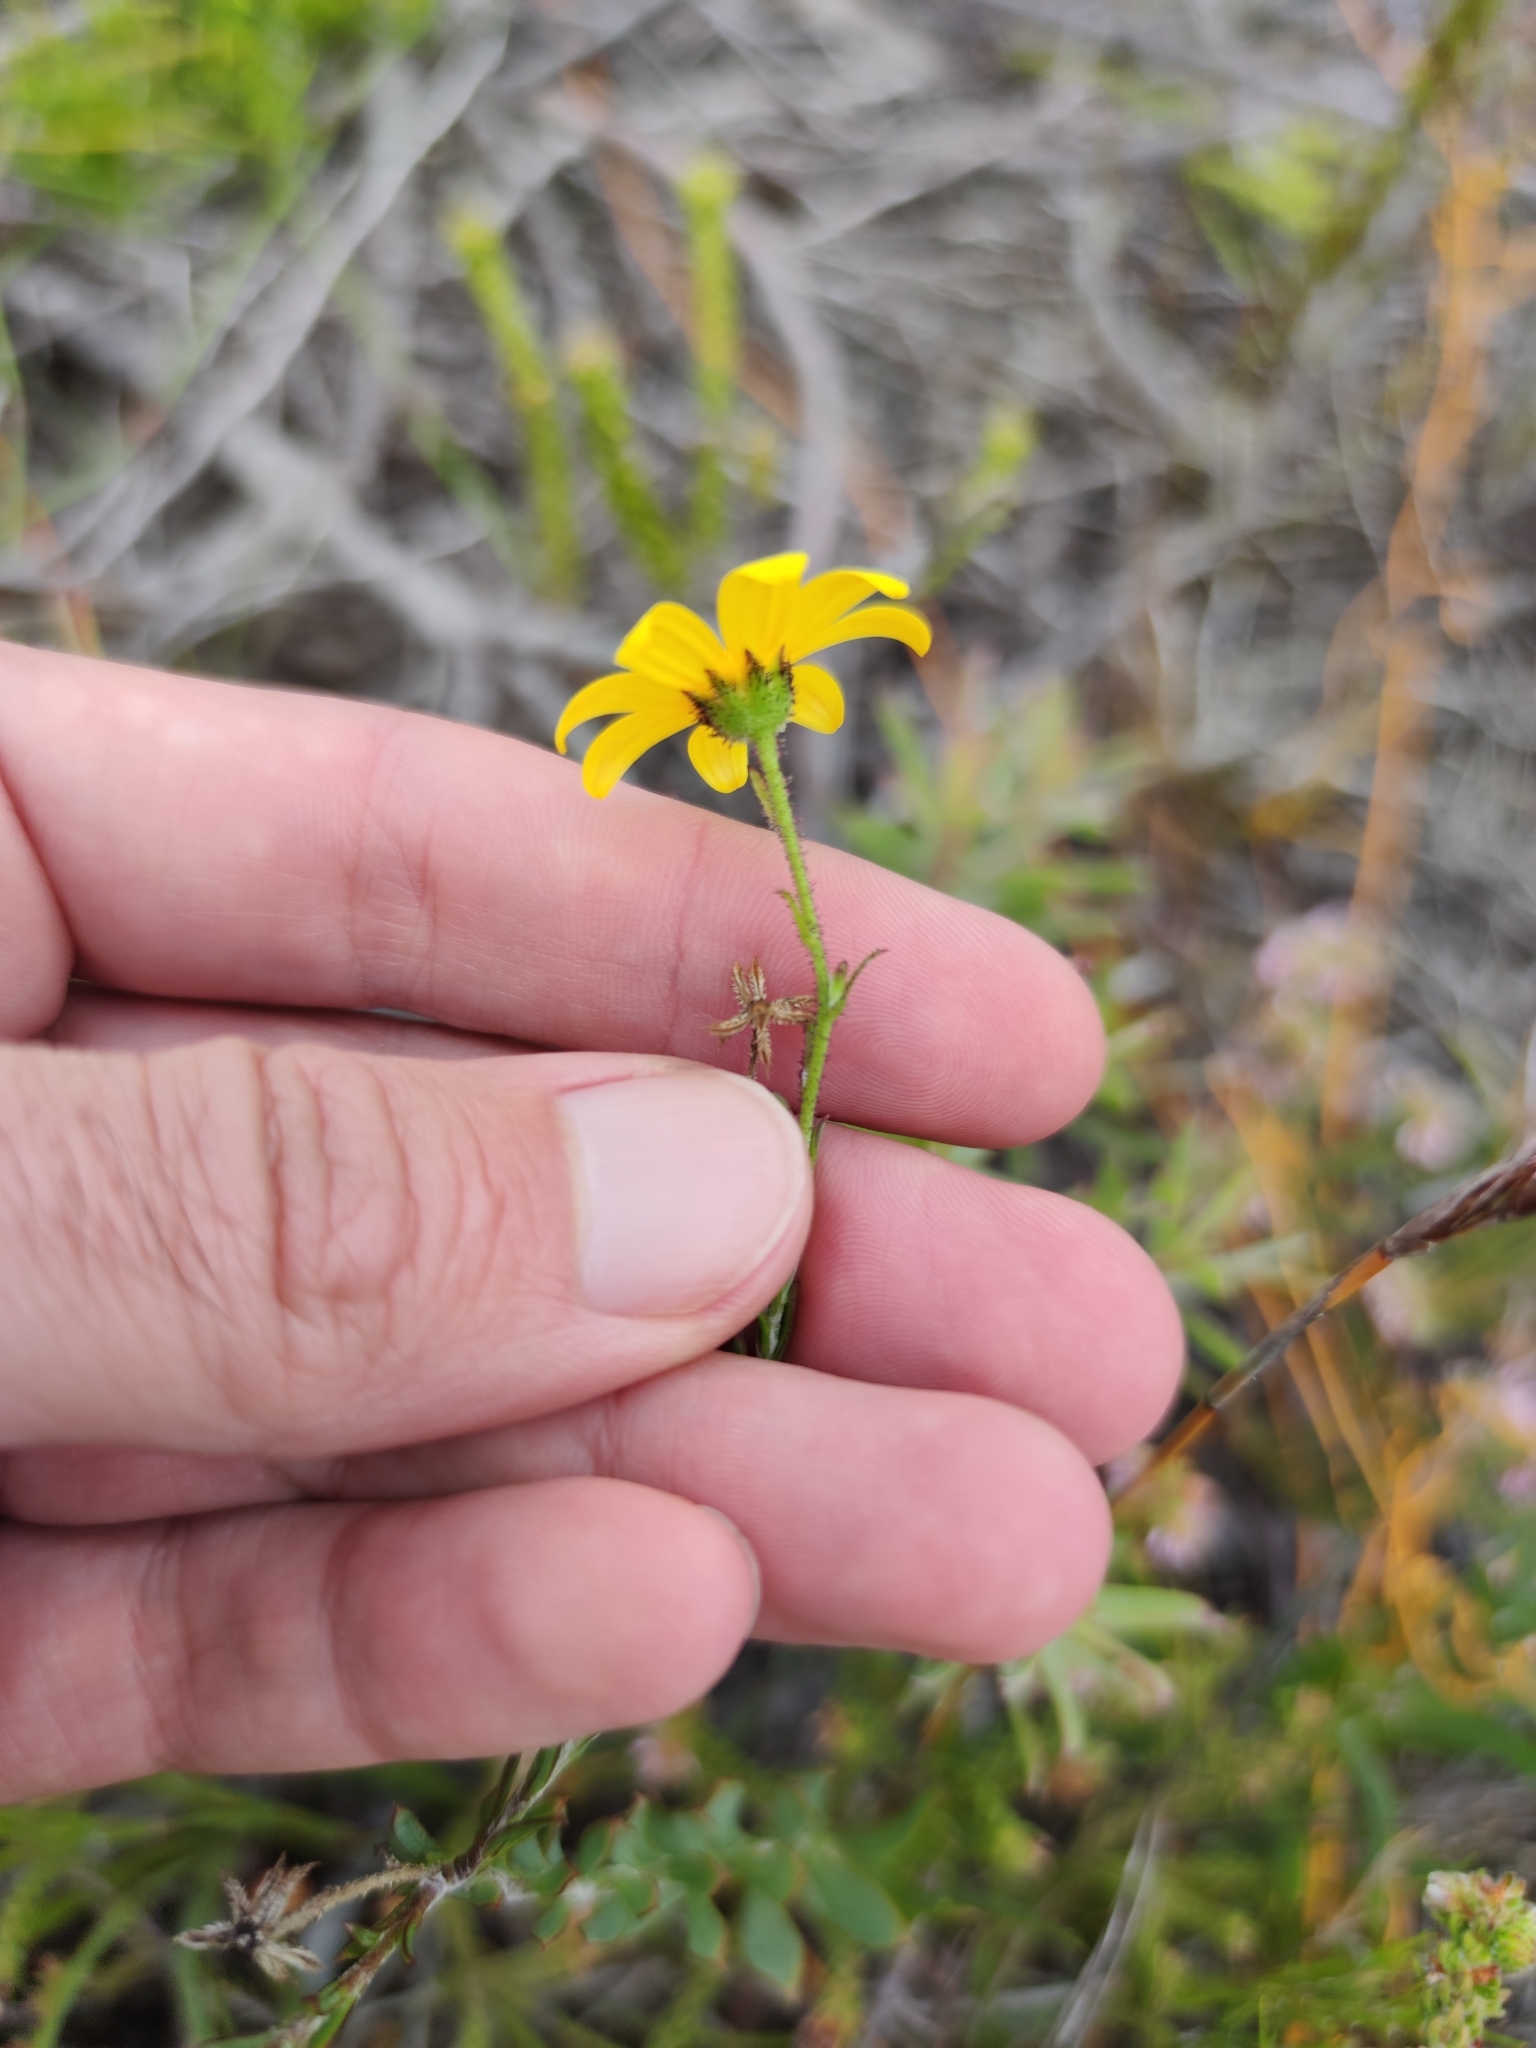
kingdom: Plantae
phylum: Tracheophyta
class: Magnoliopsida
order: Asterales
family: Asteraceae
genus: Osteospermum
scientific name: Osteospermum polygaloides
